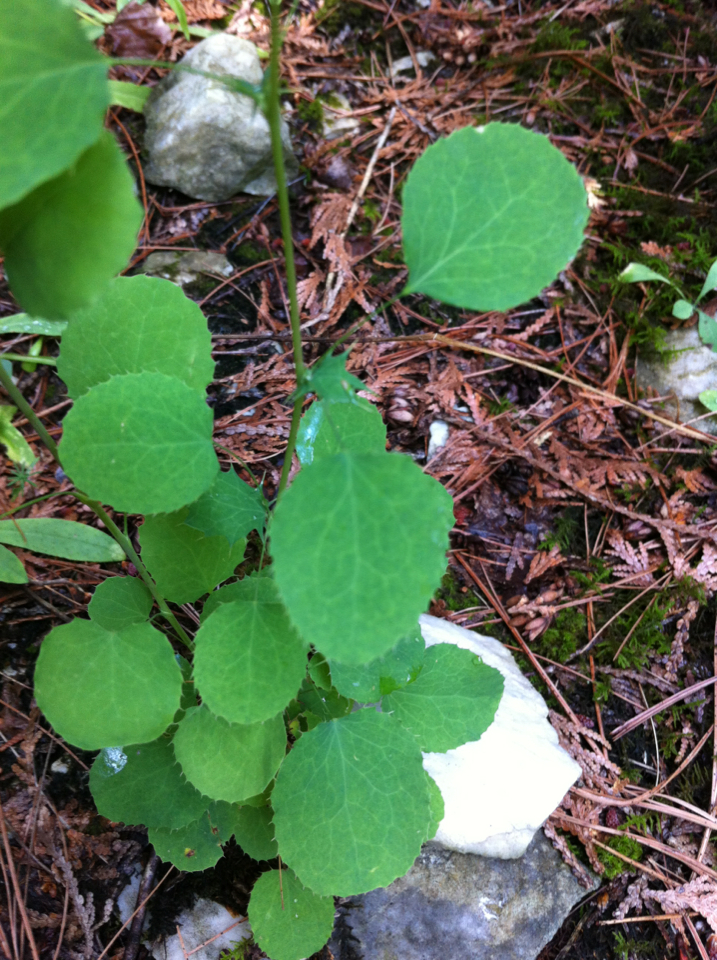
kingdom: Plantae
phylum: Tracheophyta
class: Magnoliopsida
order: Ranunculales
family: Berberidaceae
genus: Berberis
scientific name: Berberis vulgaris
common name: Barberry
